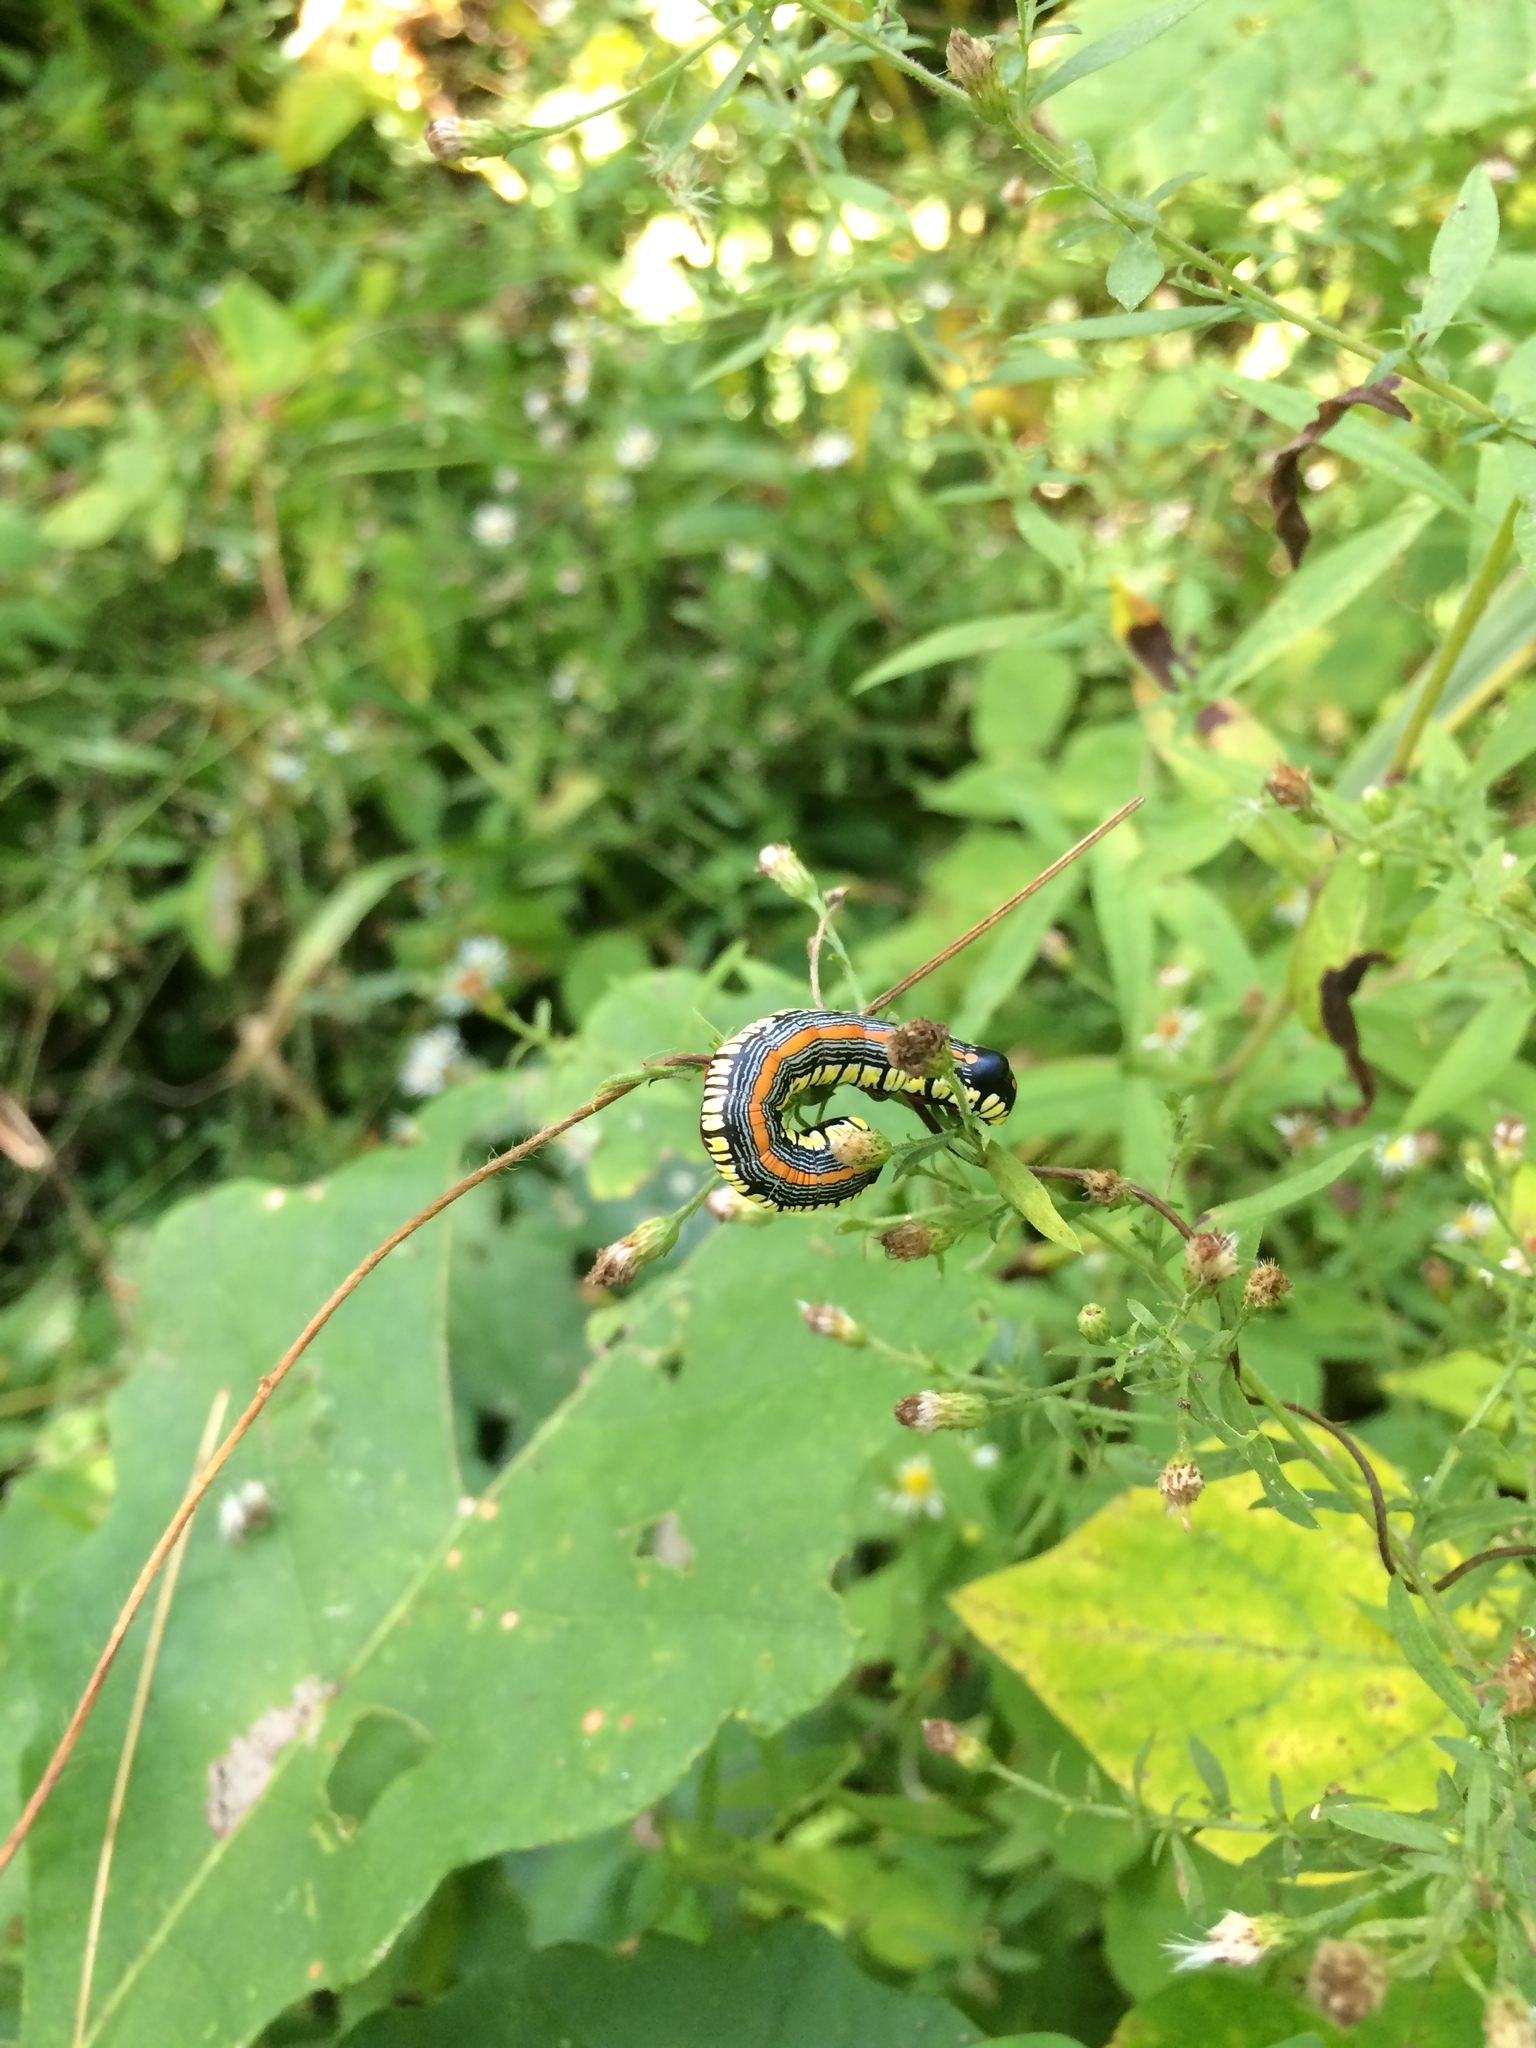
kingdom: Animalia
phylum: Arthropoda
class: Insecta
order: Lepidoptera
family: Noctuidae
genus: Cucullia
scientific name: Cucullia convexipennis
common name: Brown-hooded owlet
